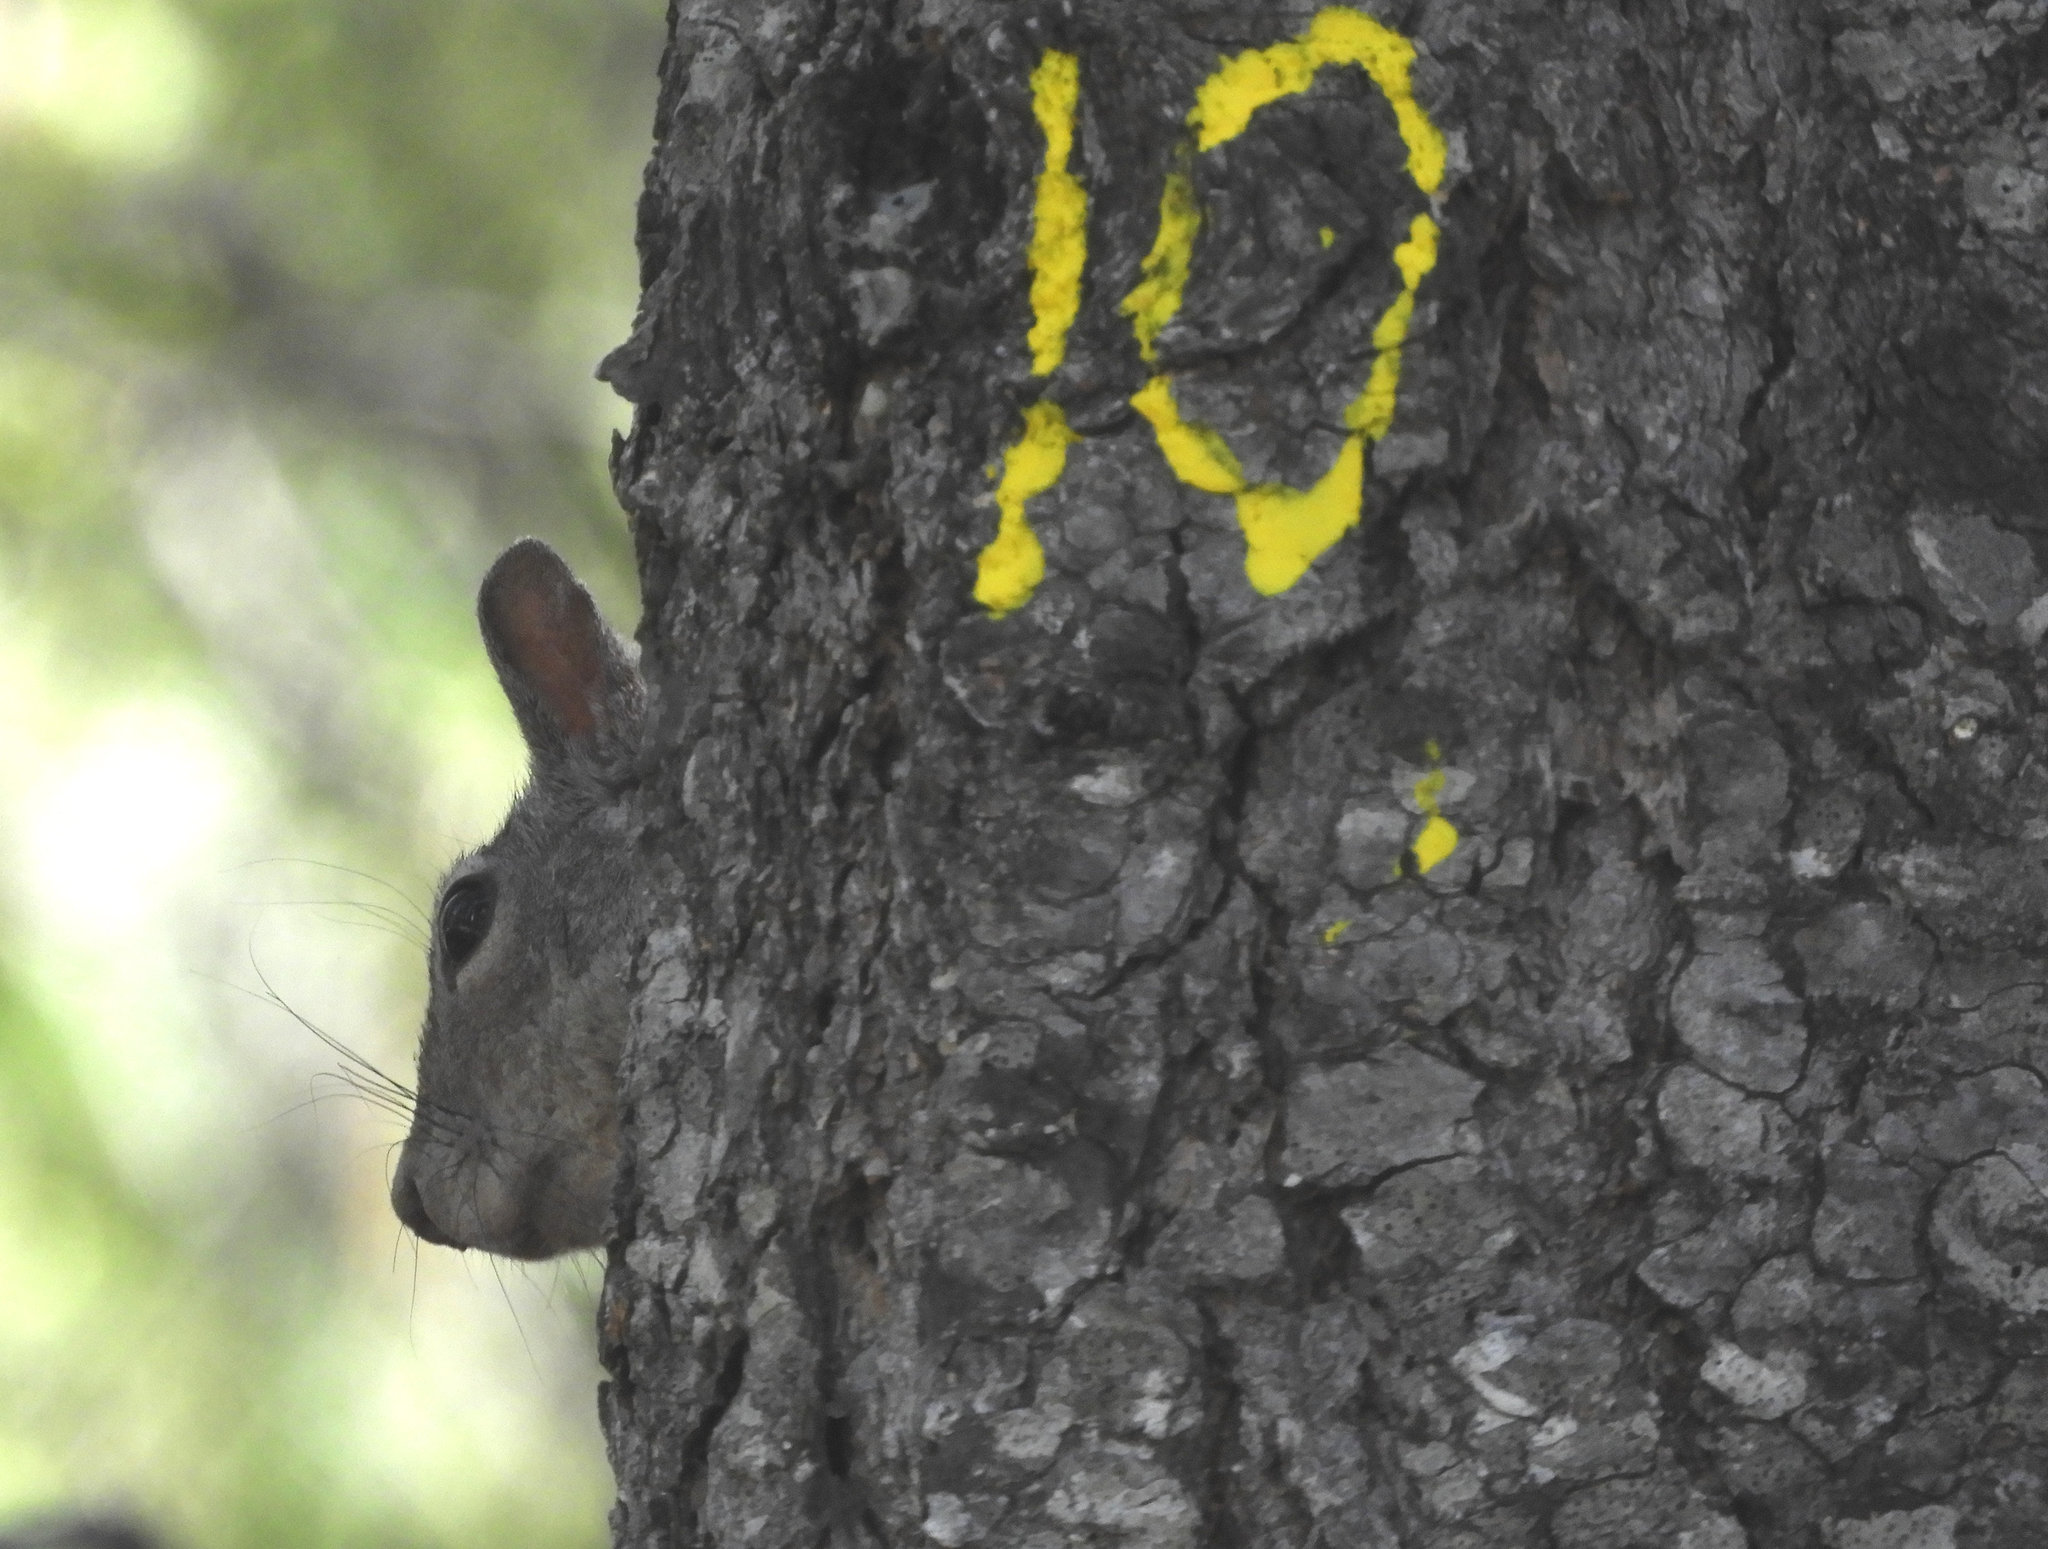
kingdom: Animalia
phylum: Chordata
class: Mammalia
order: Rodentia
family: Sciuridae
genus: Sciurus
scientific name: Sciurus griseus
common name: Western gray squirrel
